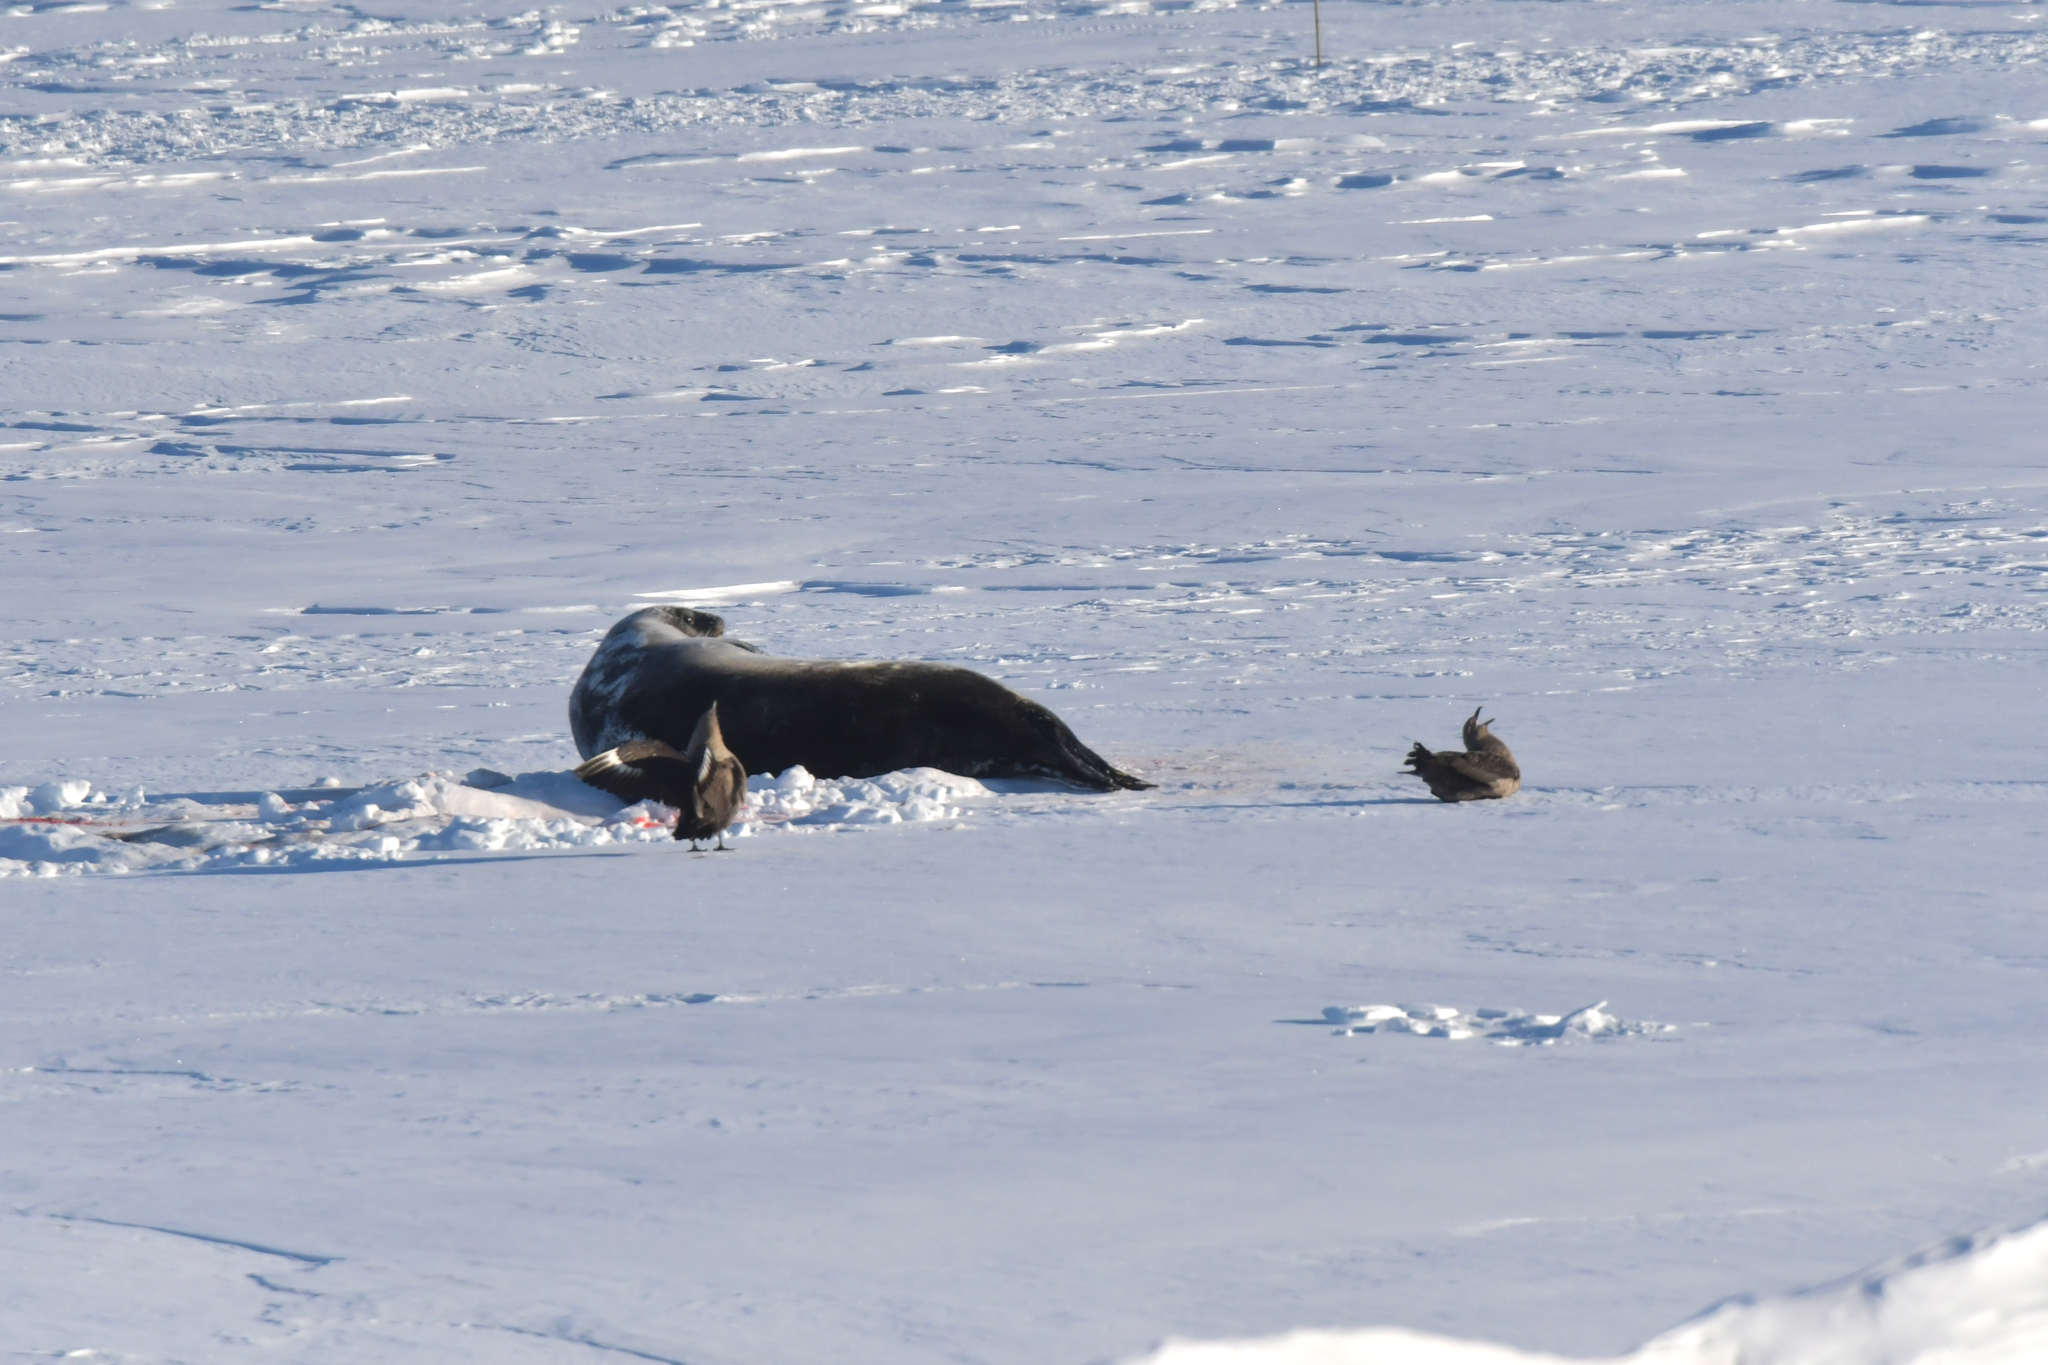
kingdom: Animalia
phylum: Chordata
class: Aves
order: Charadriiformes
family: Stercorariidae
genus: Stercorarius
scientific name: Stercorarius maccormicki
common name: South polar skua
